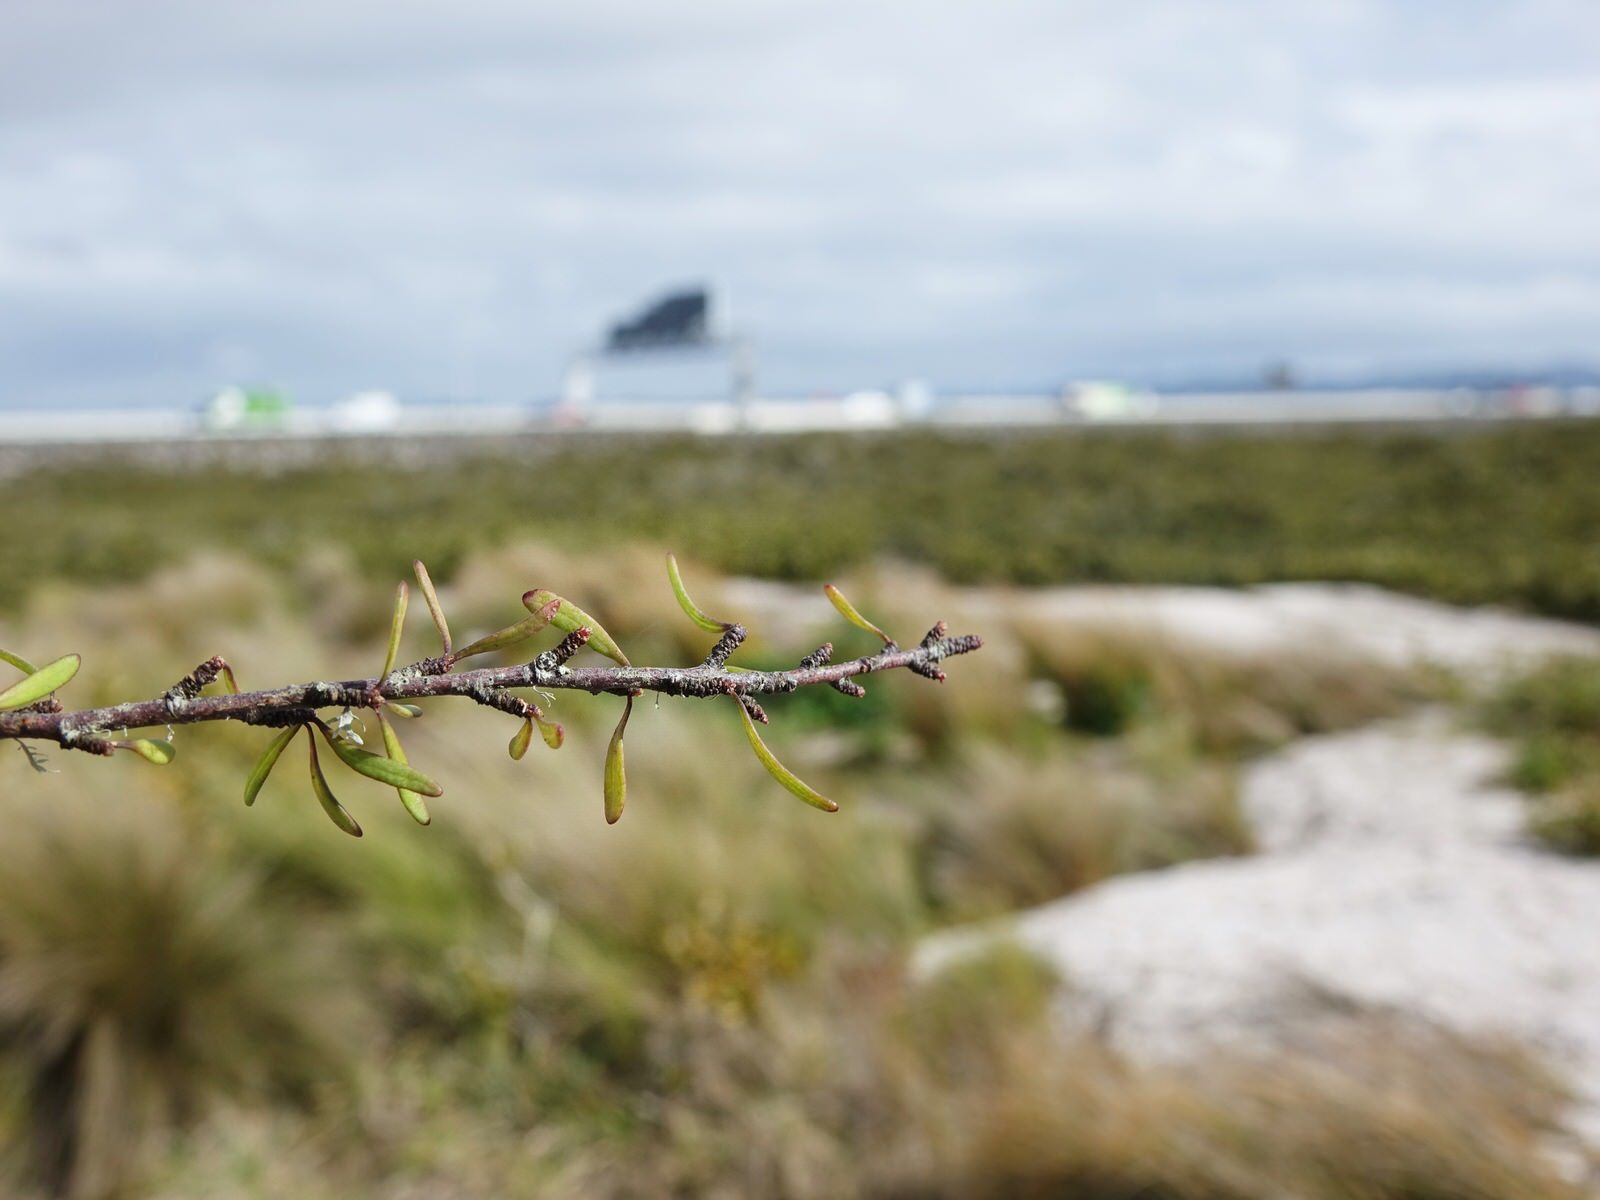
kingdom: Plantae
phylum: Tracheophyta
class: Magnoliopsida
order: Malvales
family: Malvaceae
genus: Plagianthus
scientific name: Plagianthus divaricatus
